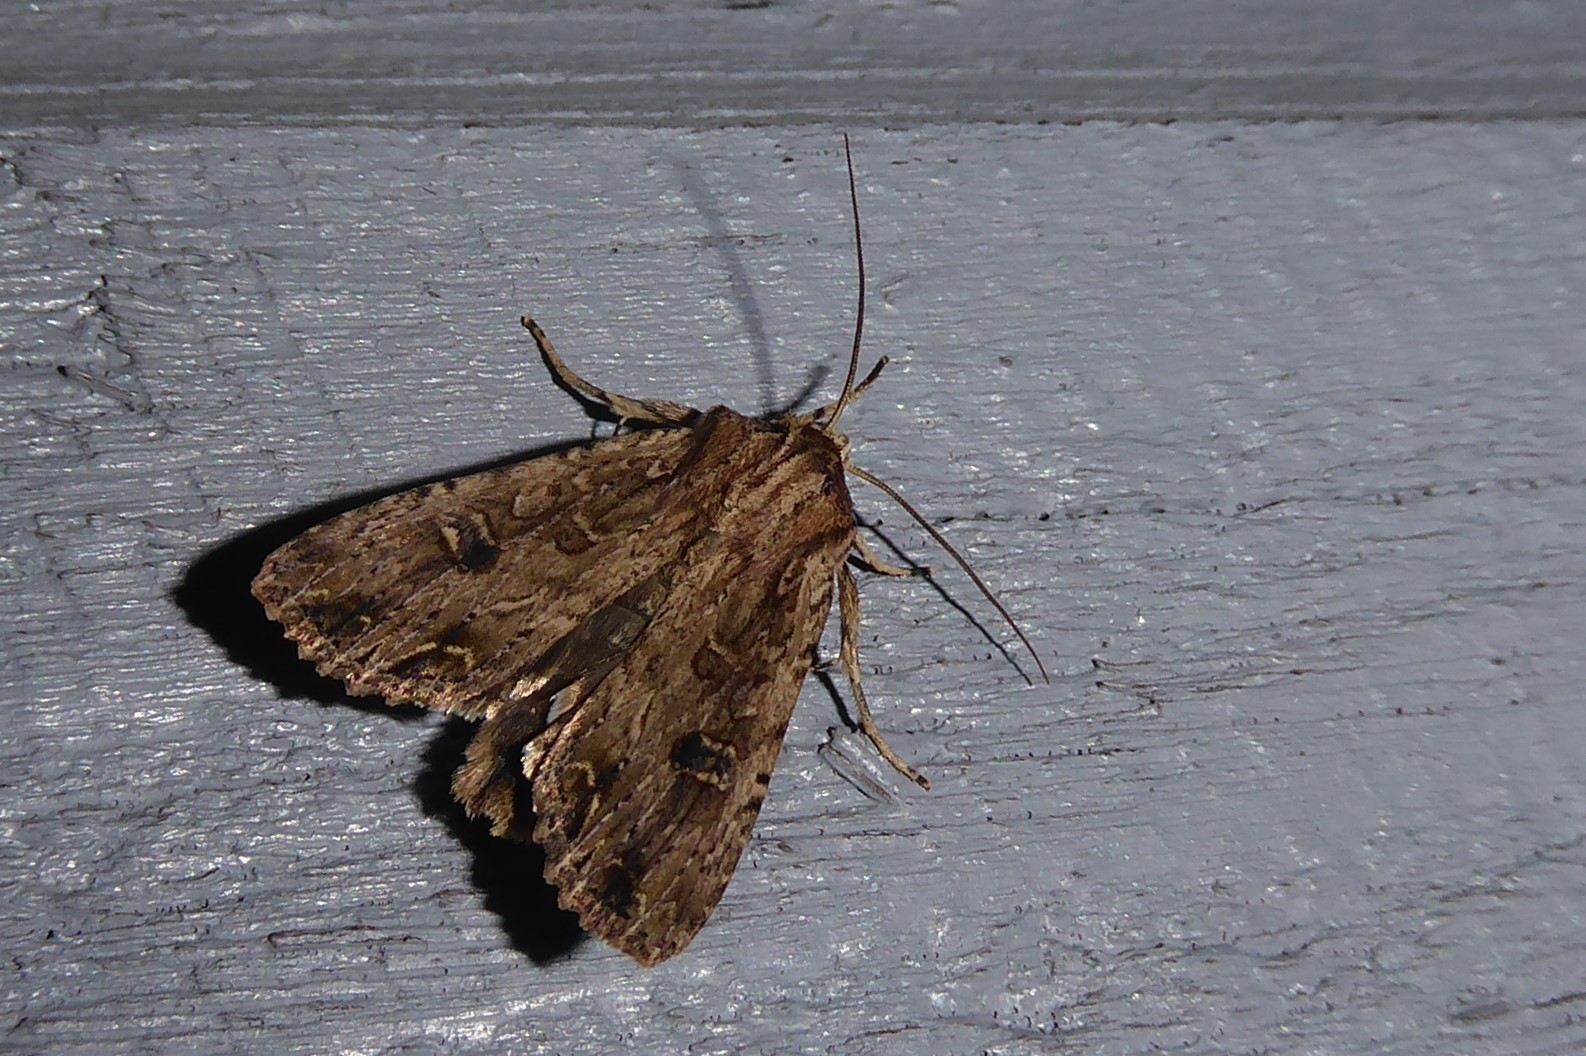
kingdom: Animalia
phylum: Arthropoda
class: Insecta
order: Lepidoptera
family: Noctuidae
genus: Ichneutica
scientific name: Ichneutica lignana
